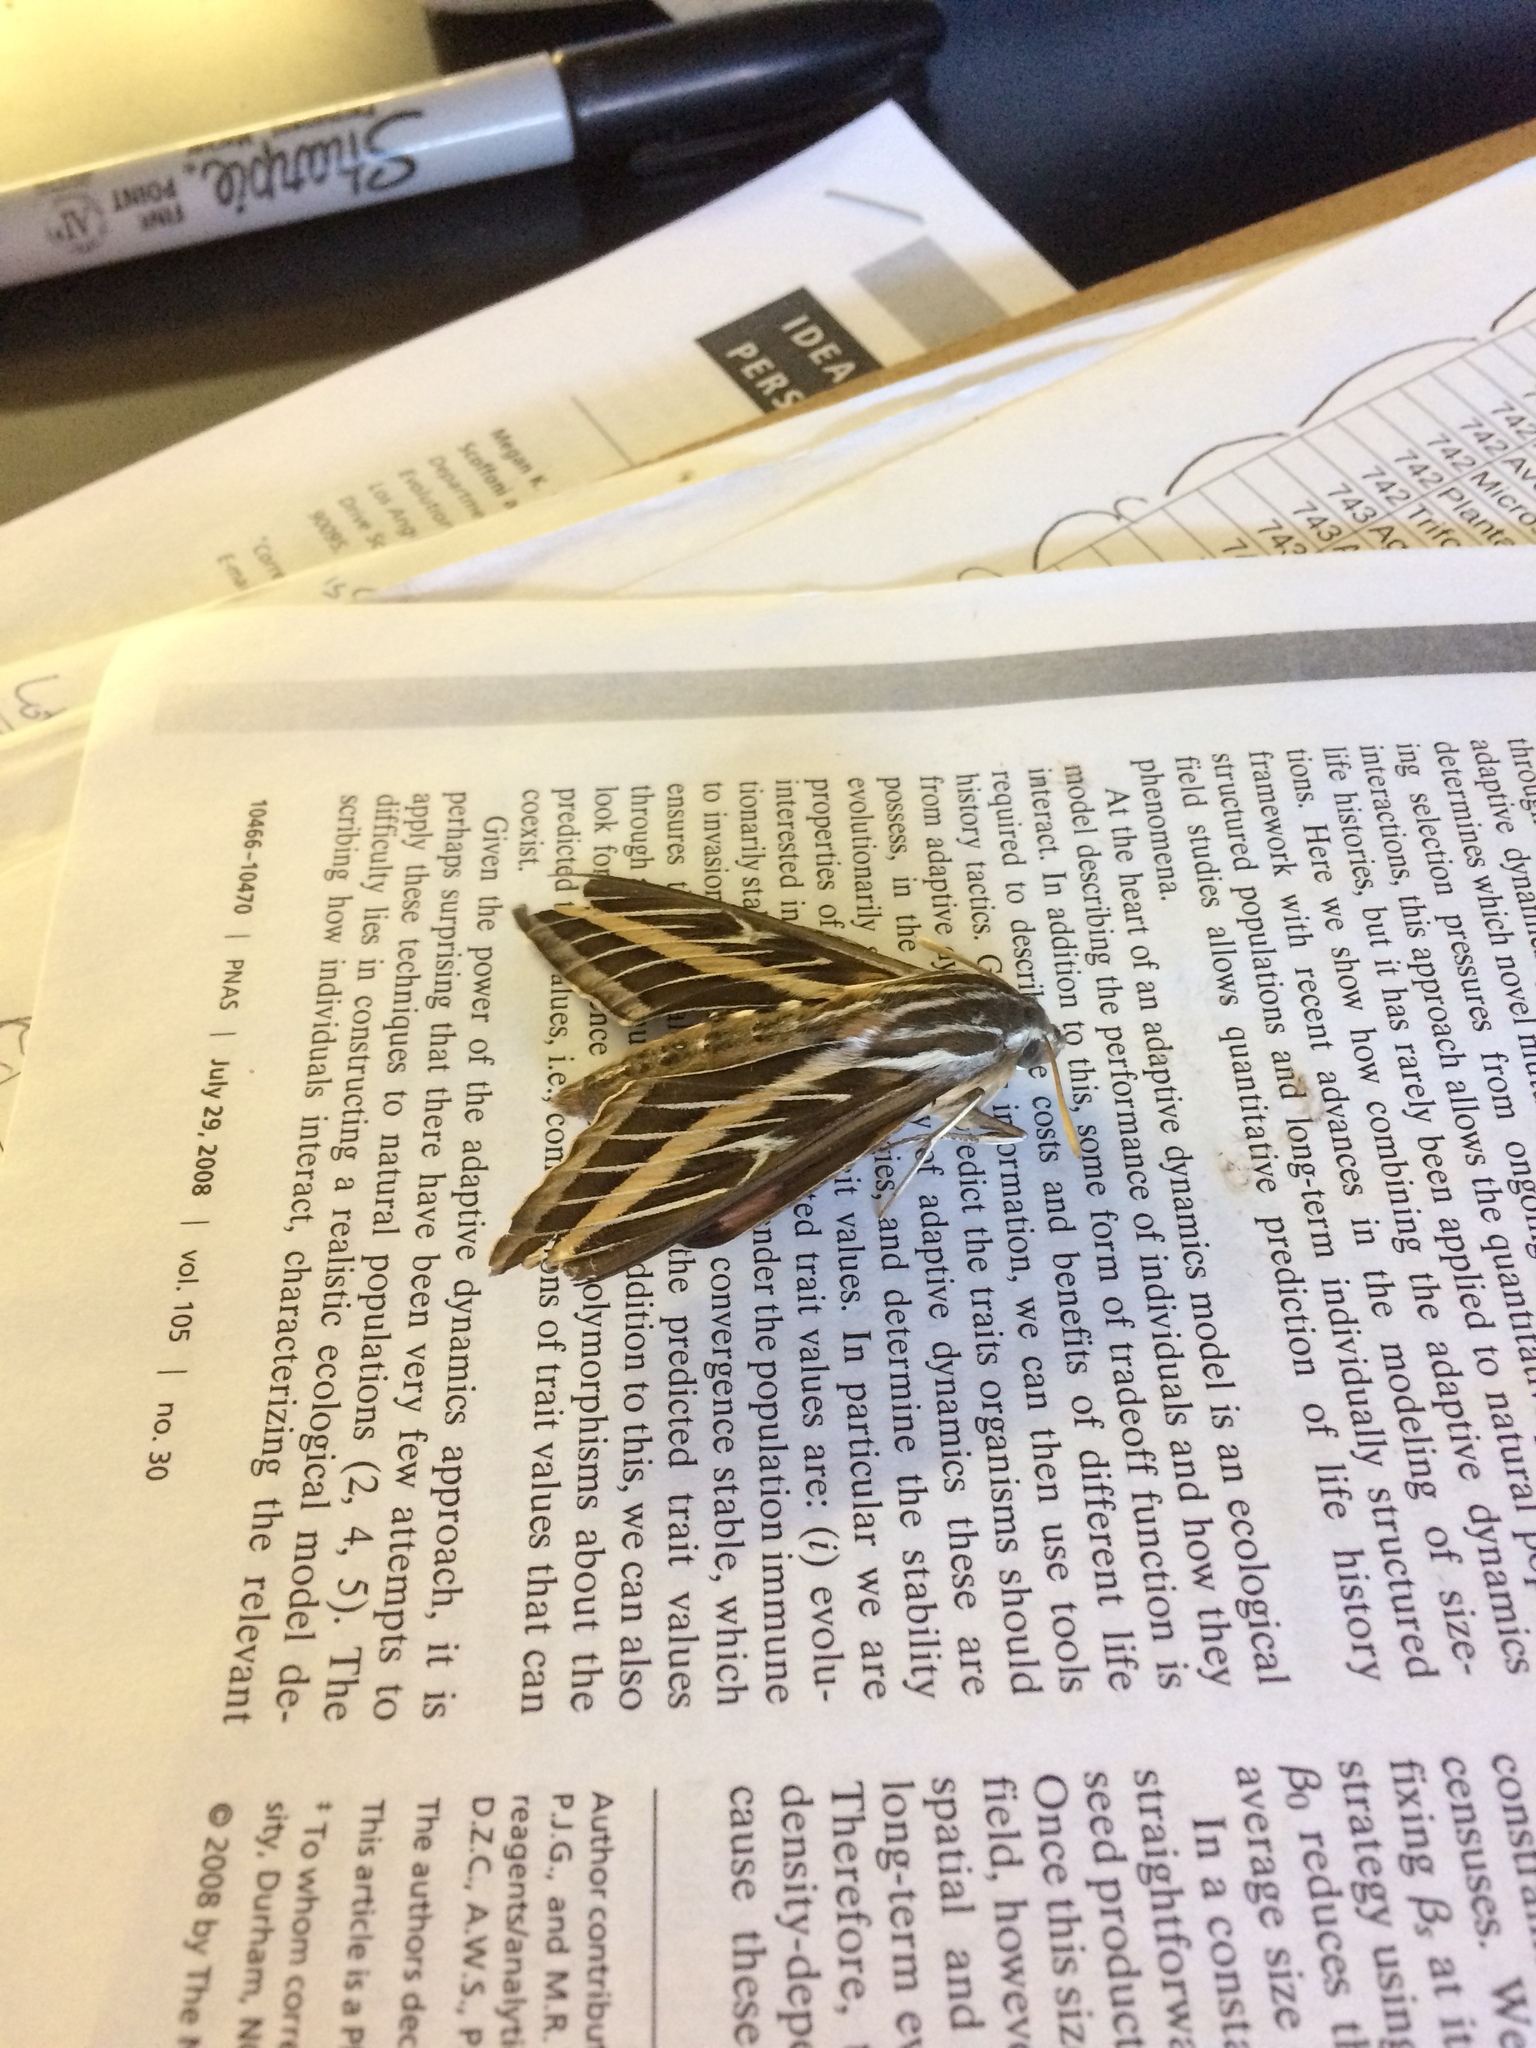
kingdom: Animalia
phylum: Arthropoda
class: Insecta
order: Lepidoptera
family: Sphingidae
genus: Hyles
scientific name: Hyles lineata
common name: White-lined sphinx
